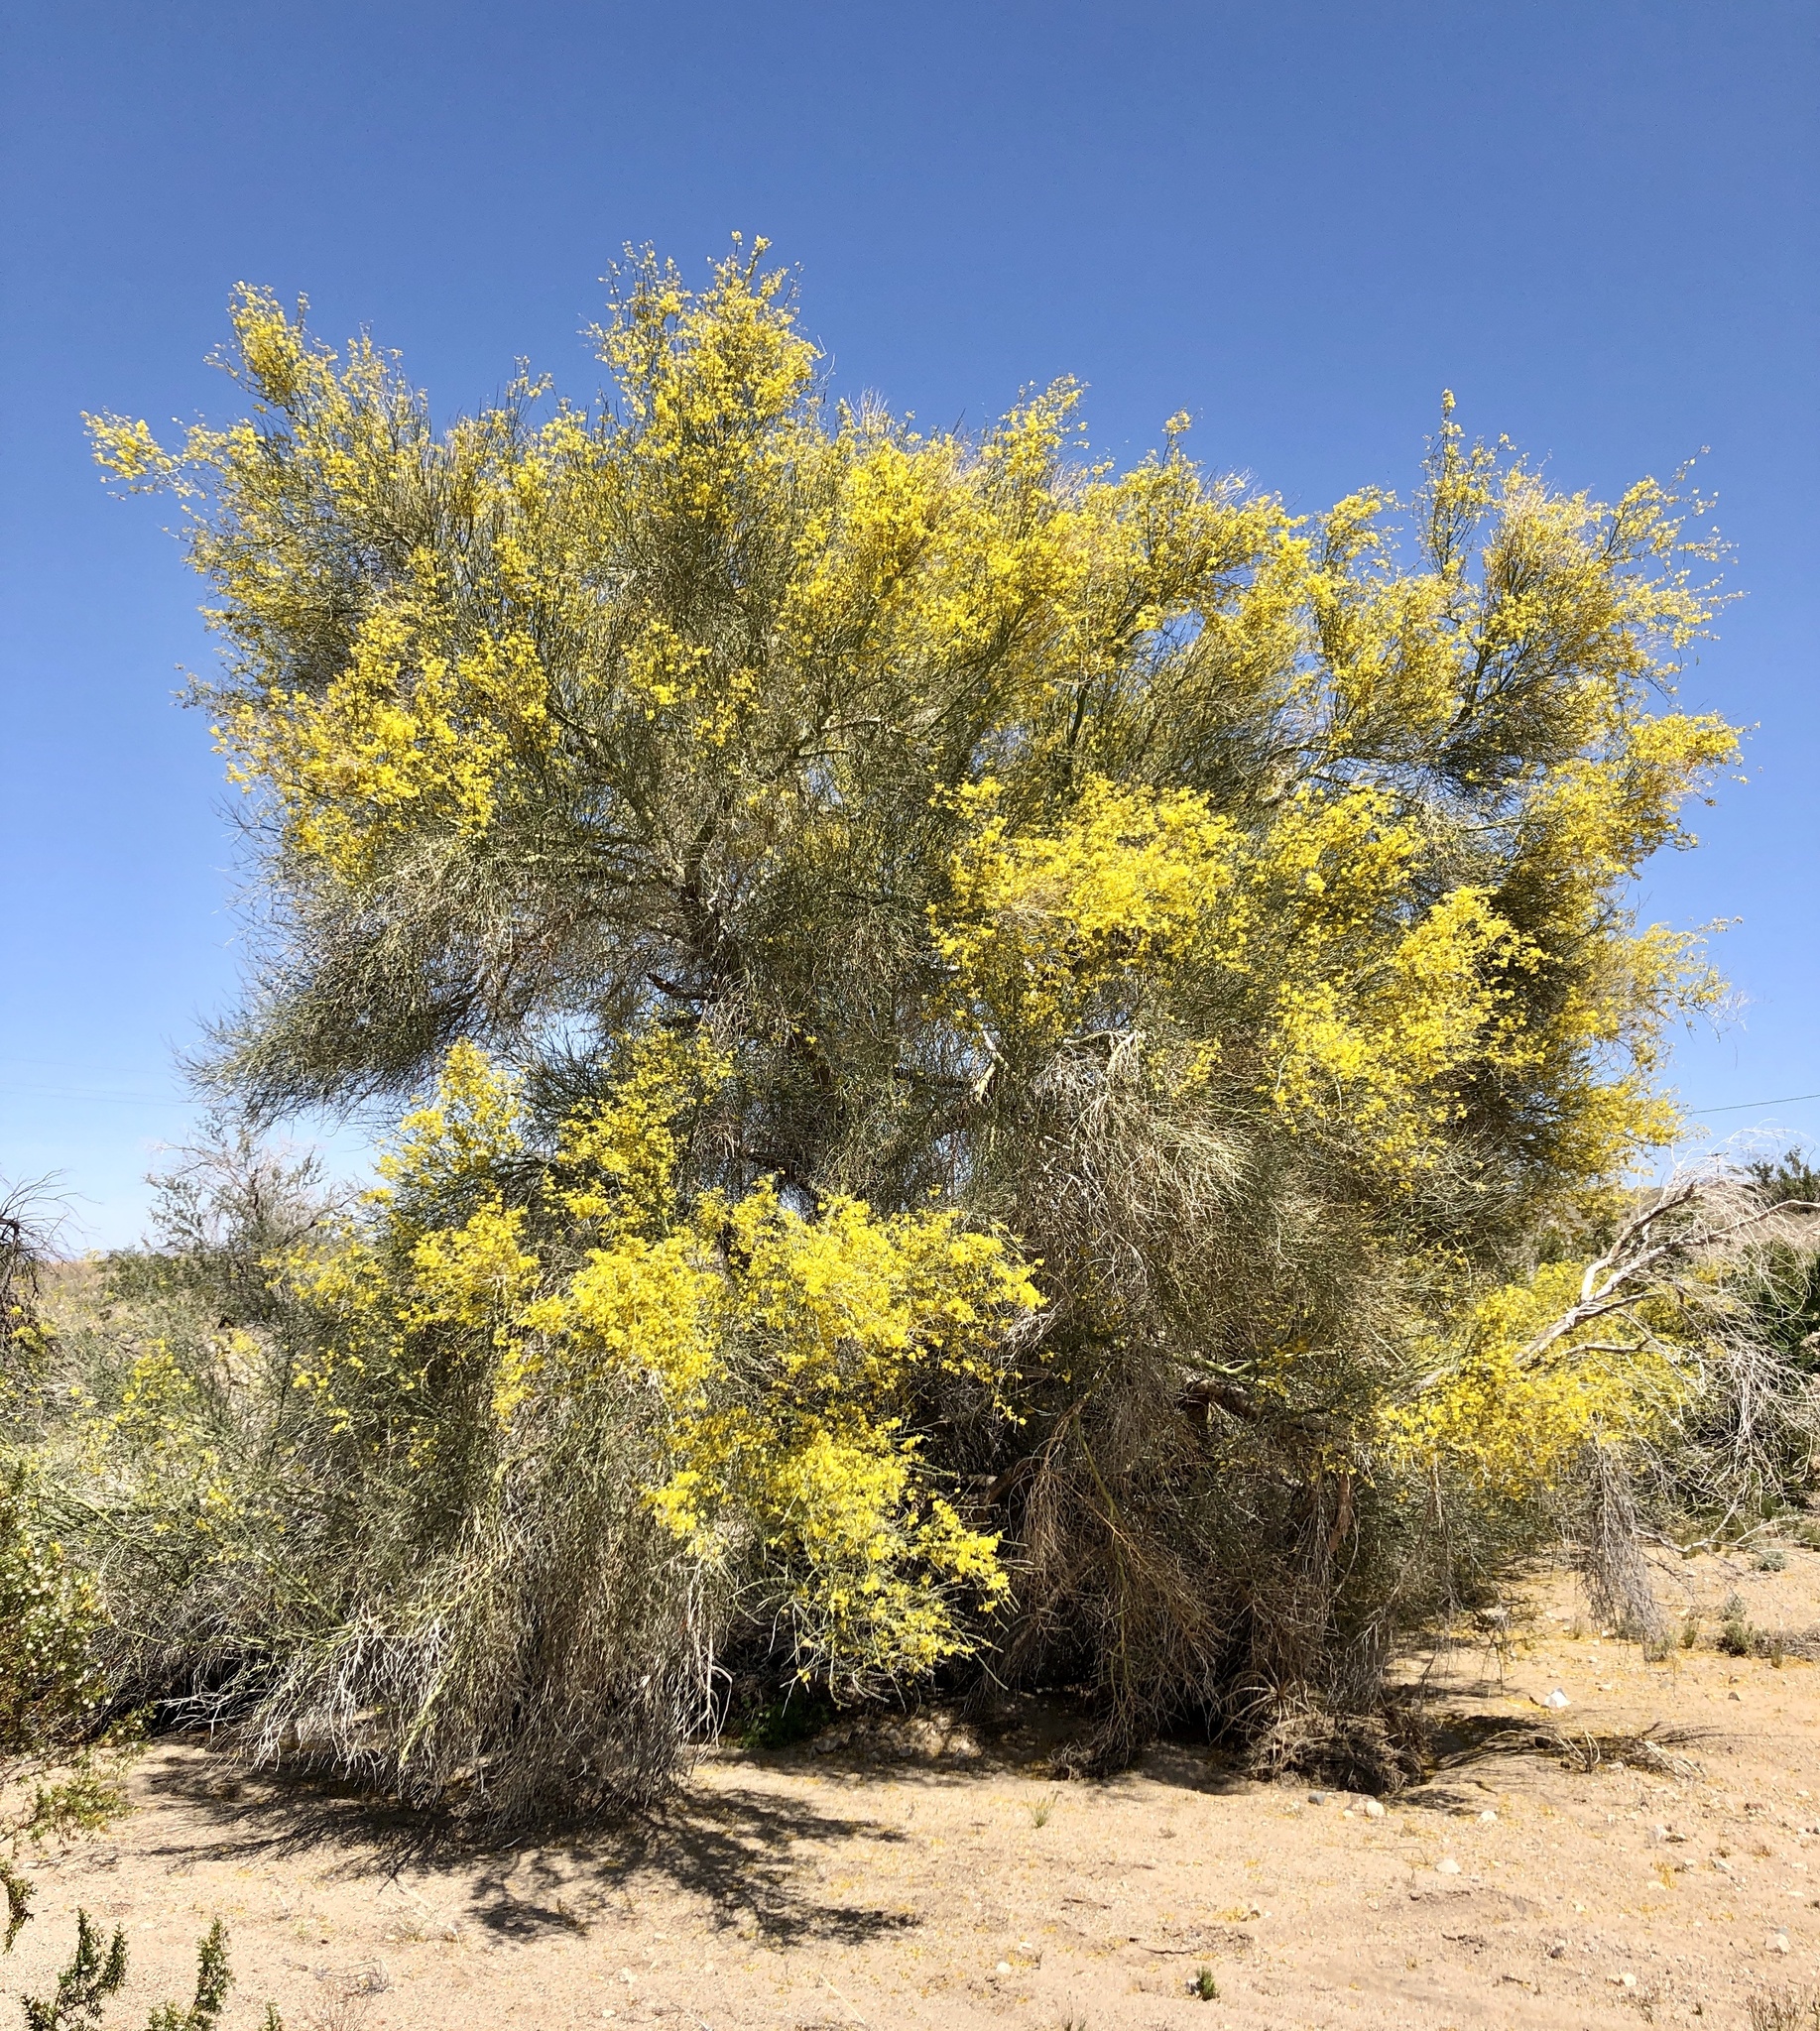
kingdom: Plantae
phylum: Tracheophyta
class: Magnoliopsida
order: Fabales
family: Fabaceae
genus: Parkinsonia
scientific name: Parkinsonia florida
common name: Blue paloverde
